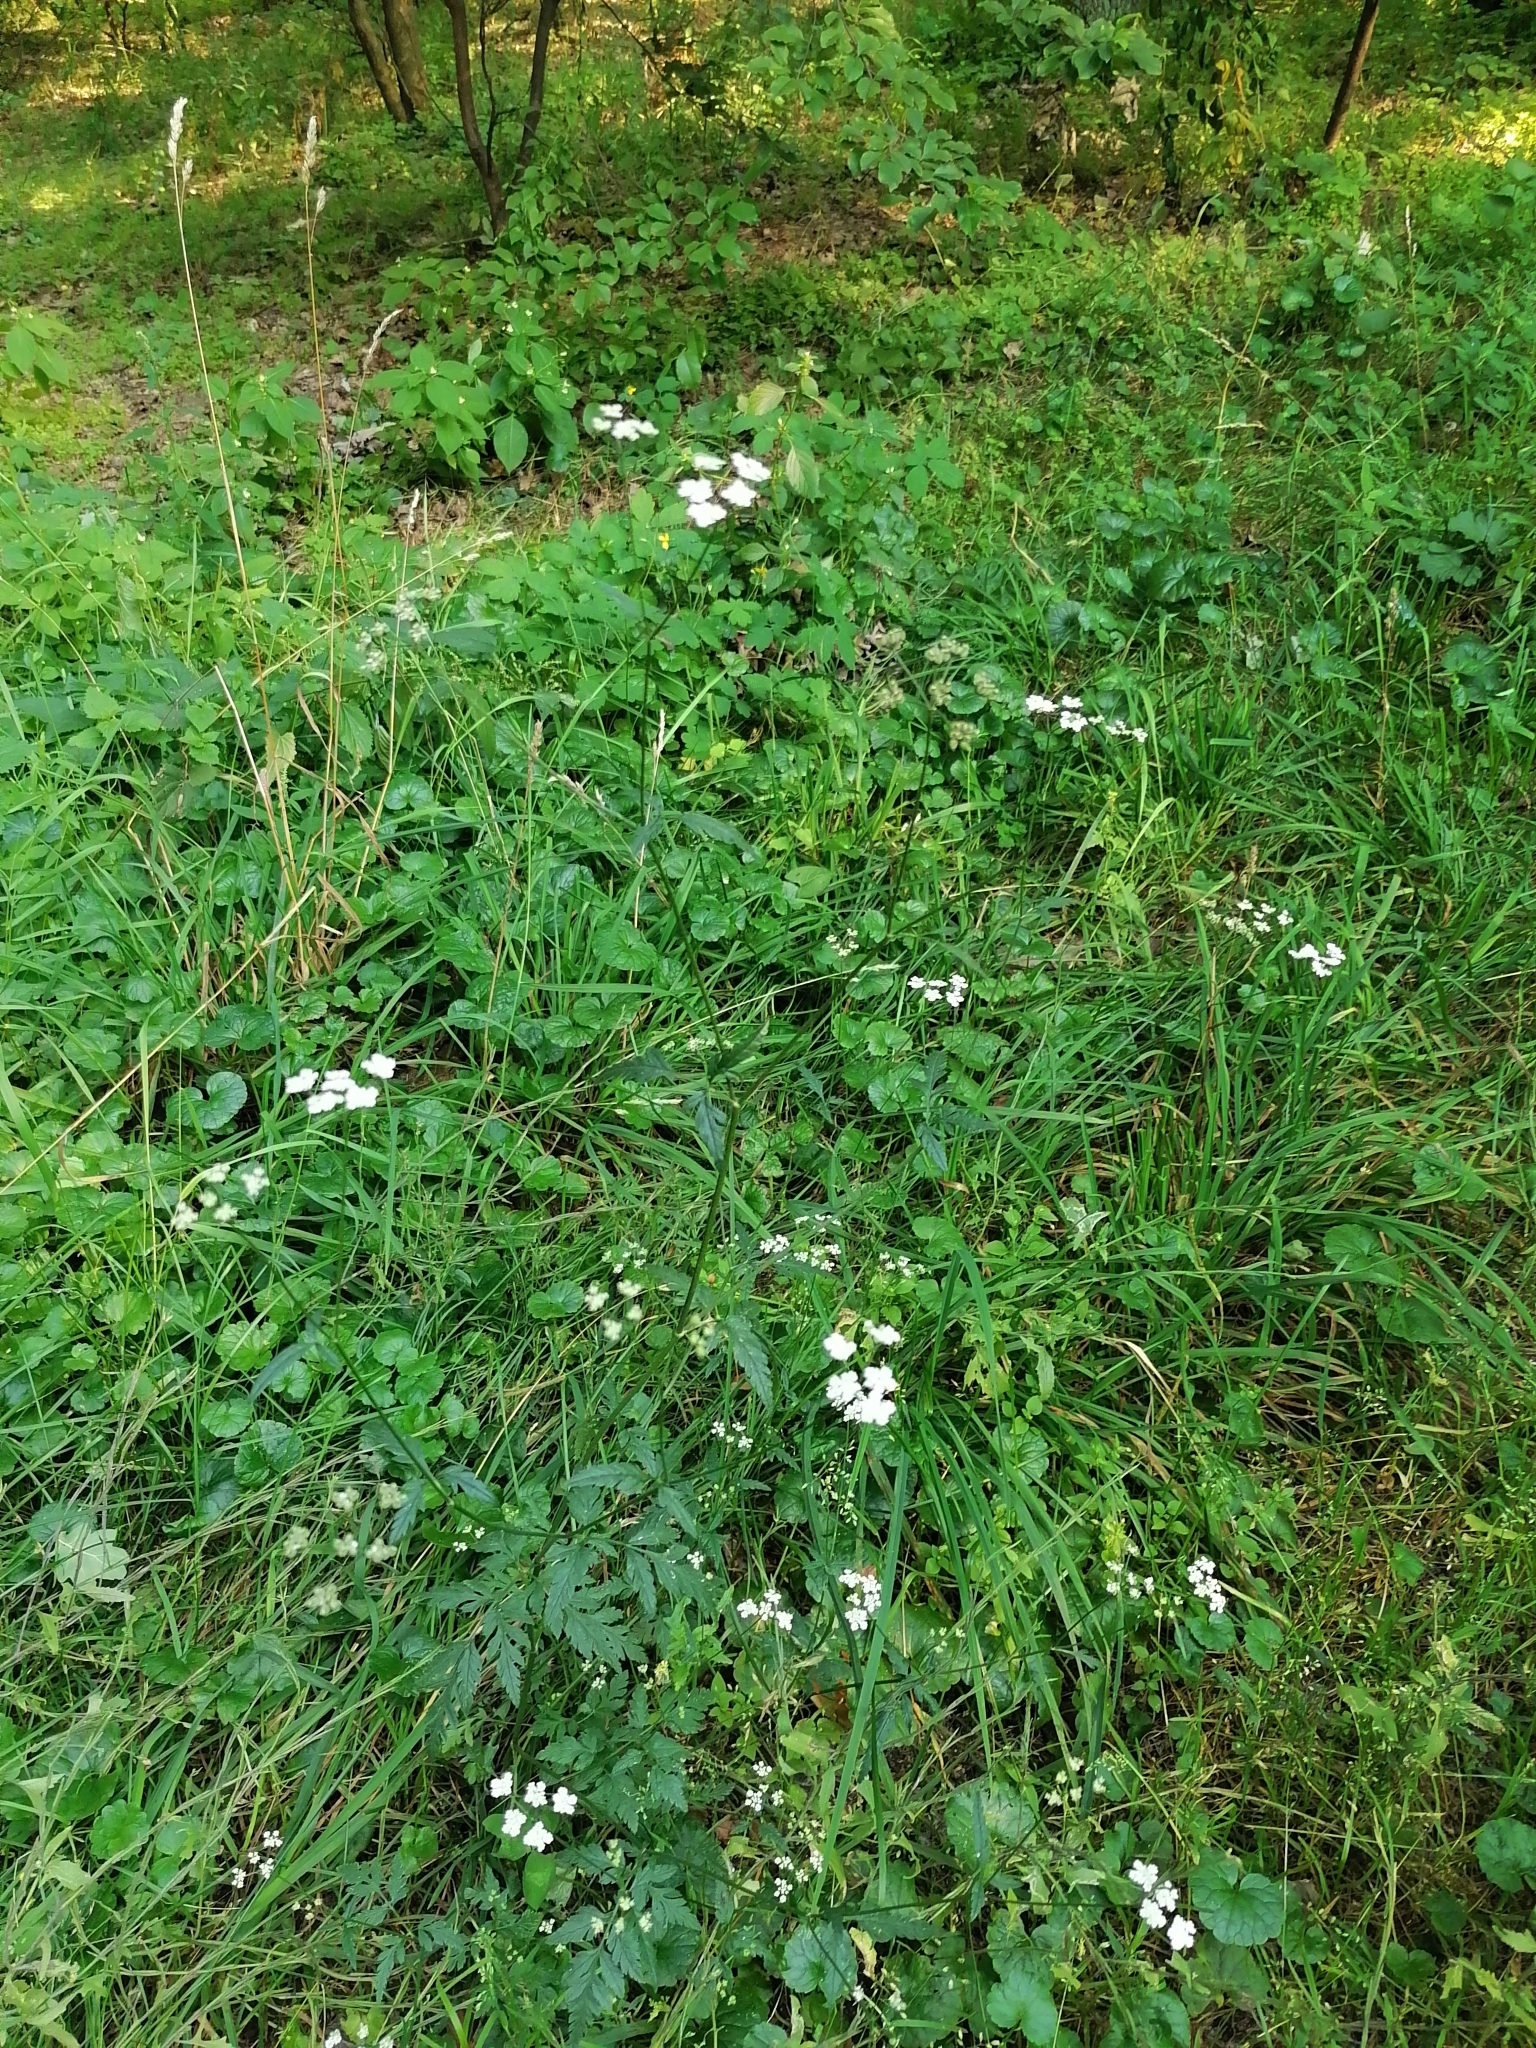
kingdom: Plantae
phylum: Tracheophyta
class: Magnoliopsida
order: Apiales
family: Apiaceae
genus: Torilis
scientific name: Torilis japonica
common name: Upright hedge-parsley
